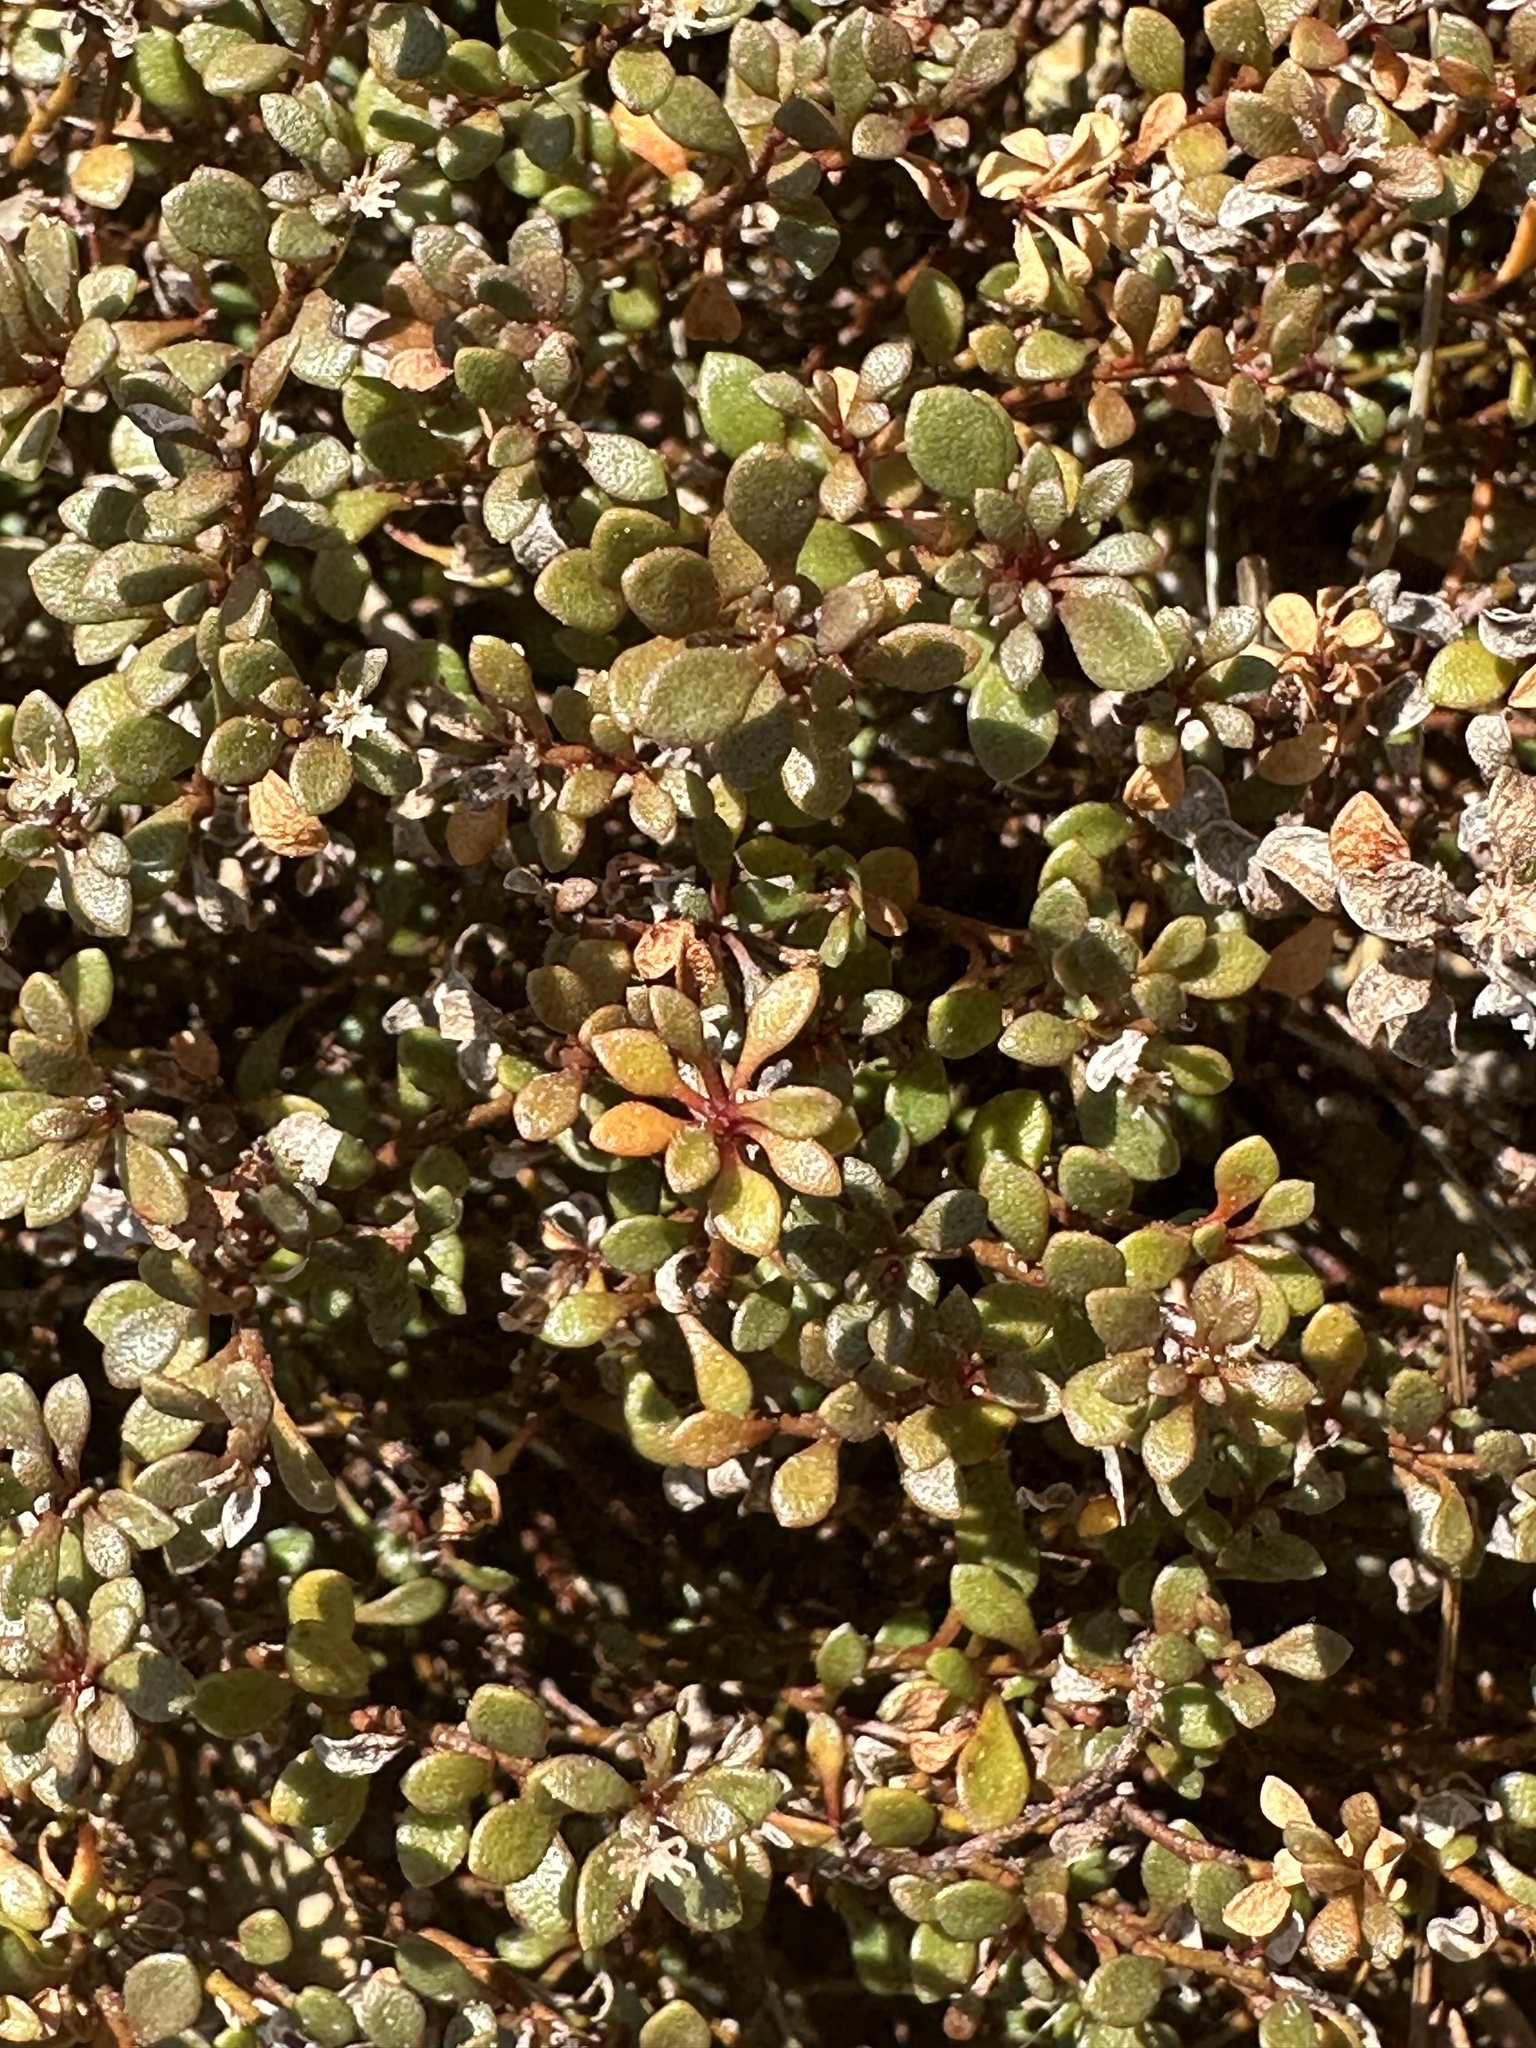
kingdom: Plantae
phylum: Tracheophyta
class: Magnoliopsida
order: Ericales
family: Primulaceae
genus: Samolus
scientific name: Samolus repens
